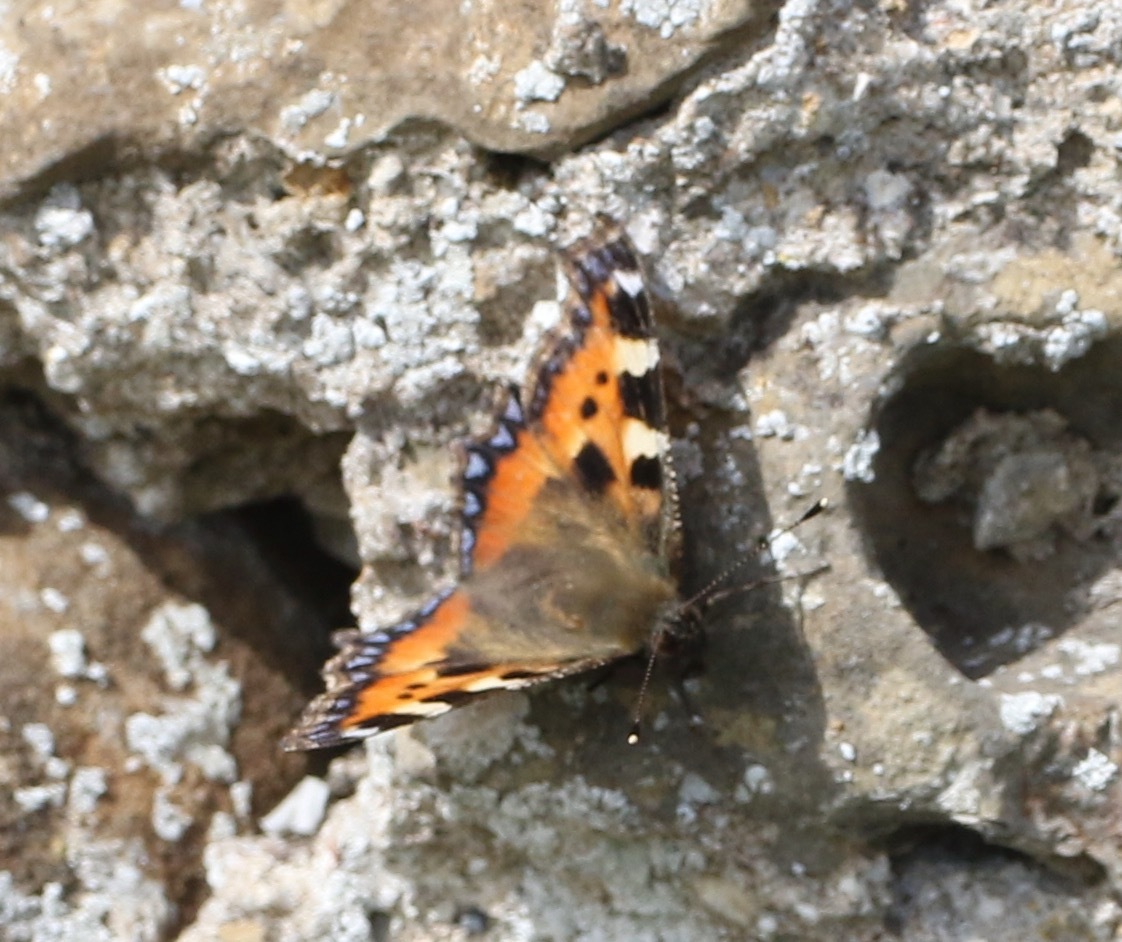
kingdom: Animalia
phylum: Arthropoda
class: Insecta
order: Lepidoptera
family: Nymphalidae
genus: Aglais
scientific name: Aglais urticae
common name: Small tortoiseshell
